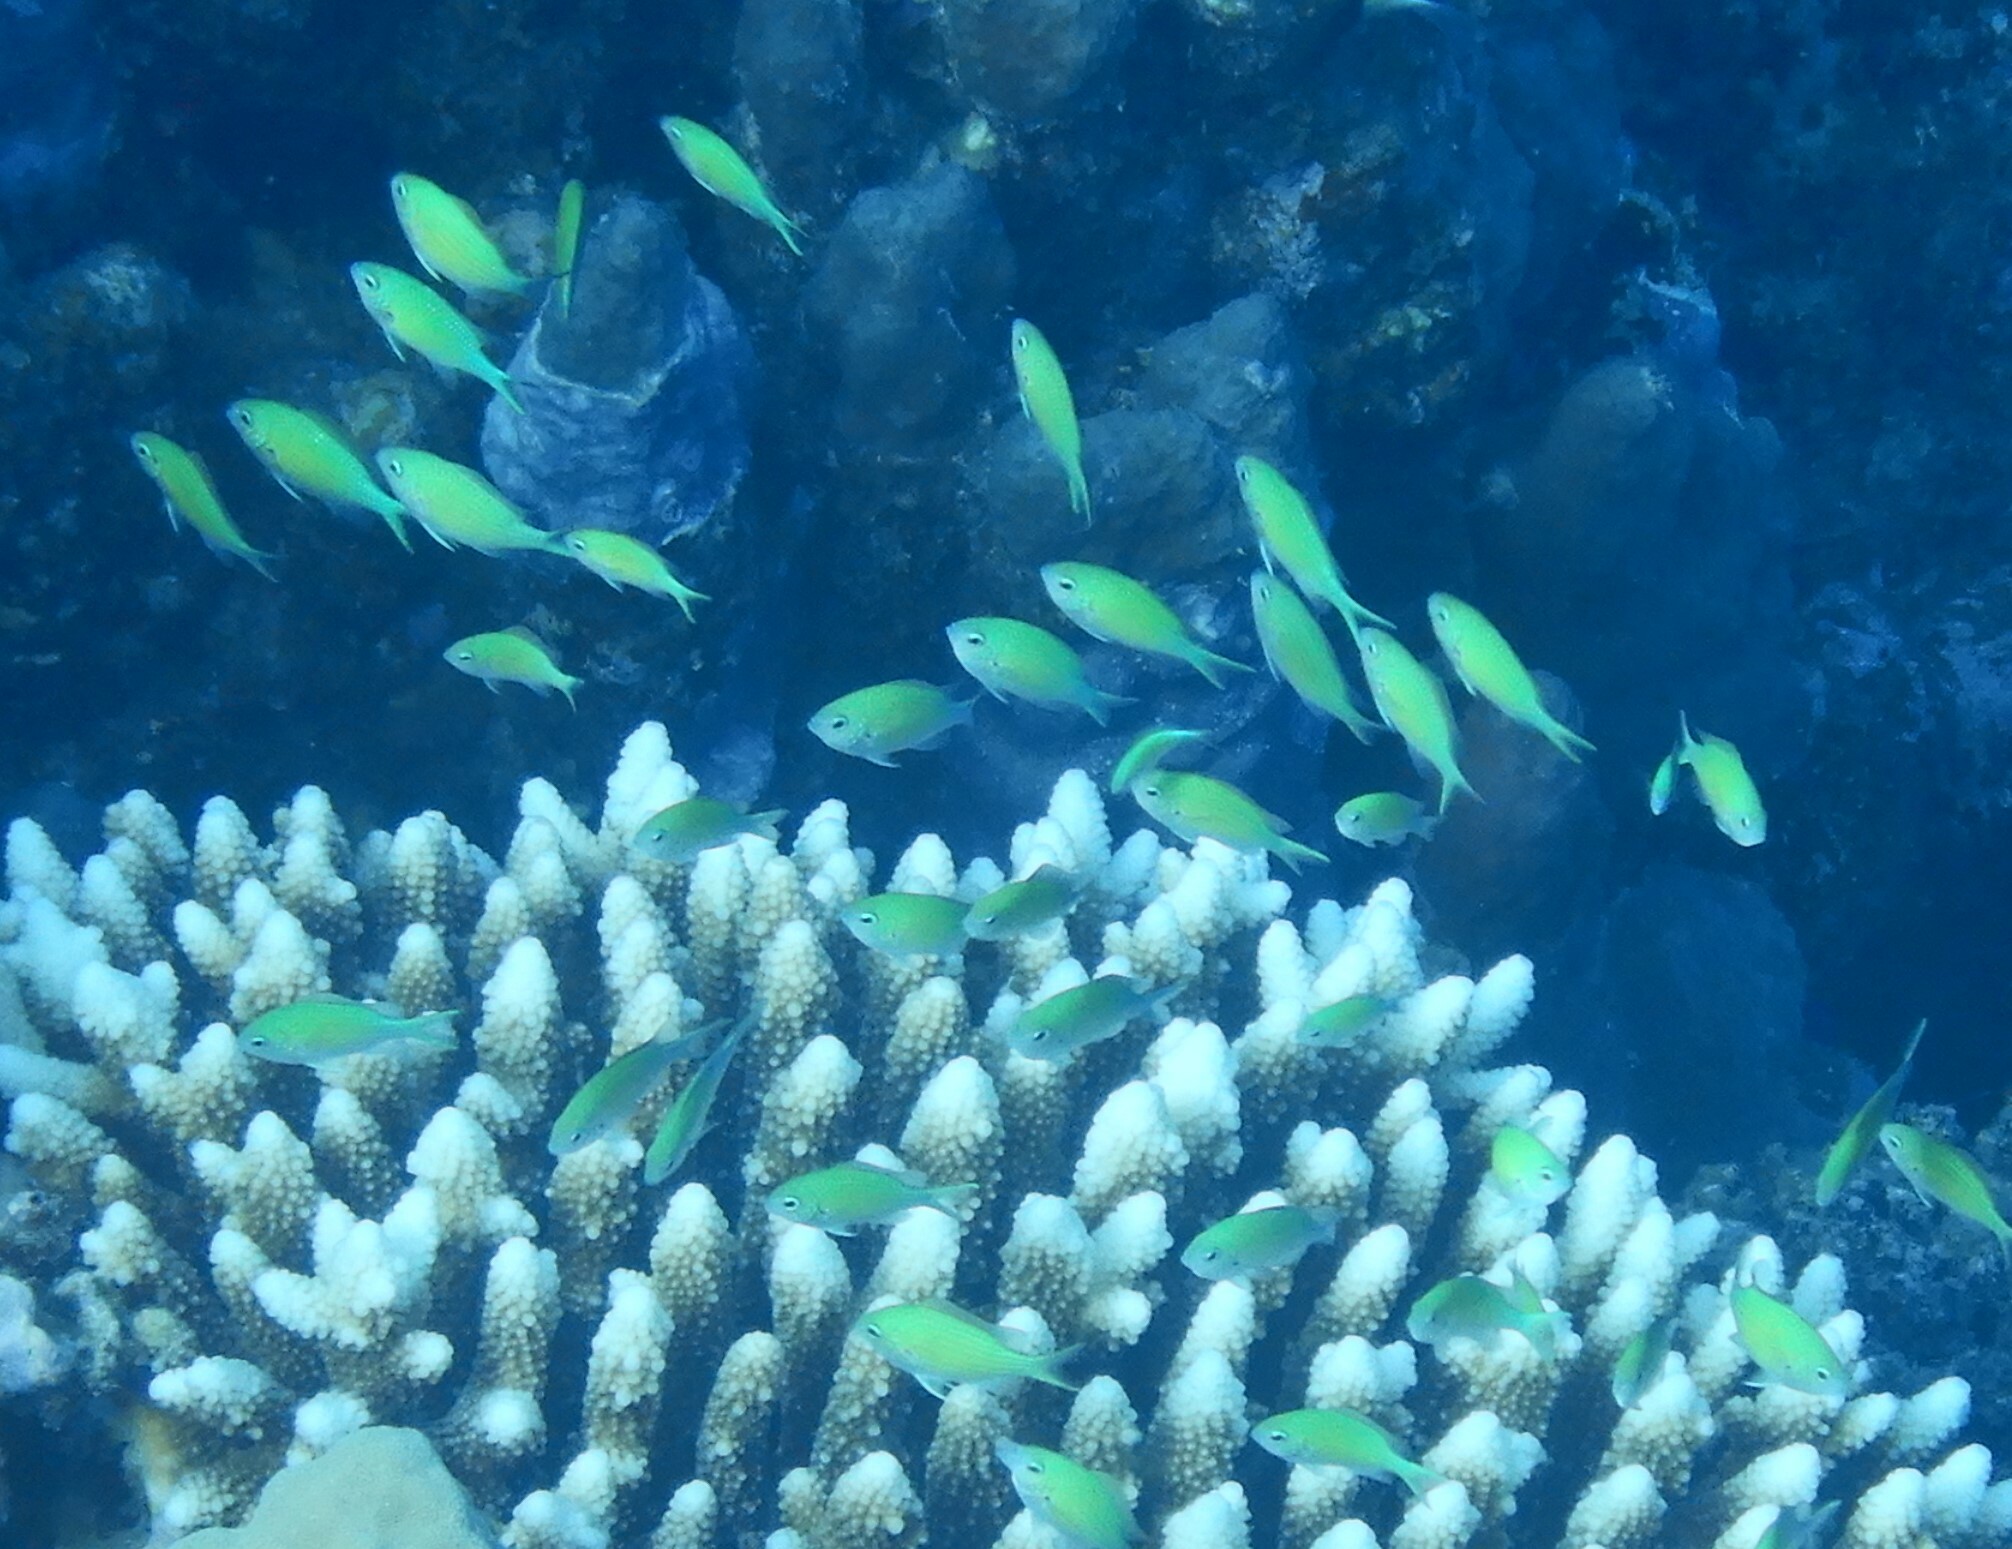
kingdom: Animalia
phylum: Chordata
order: Perciformes
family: Pomacentridae
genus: Chromis
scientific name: Chromis viridis
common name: Blue-green chromis
